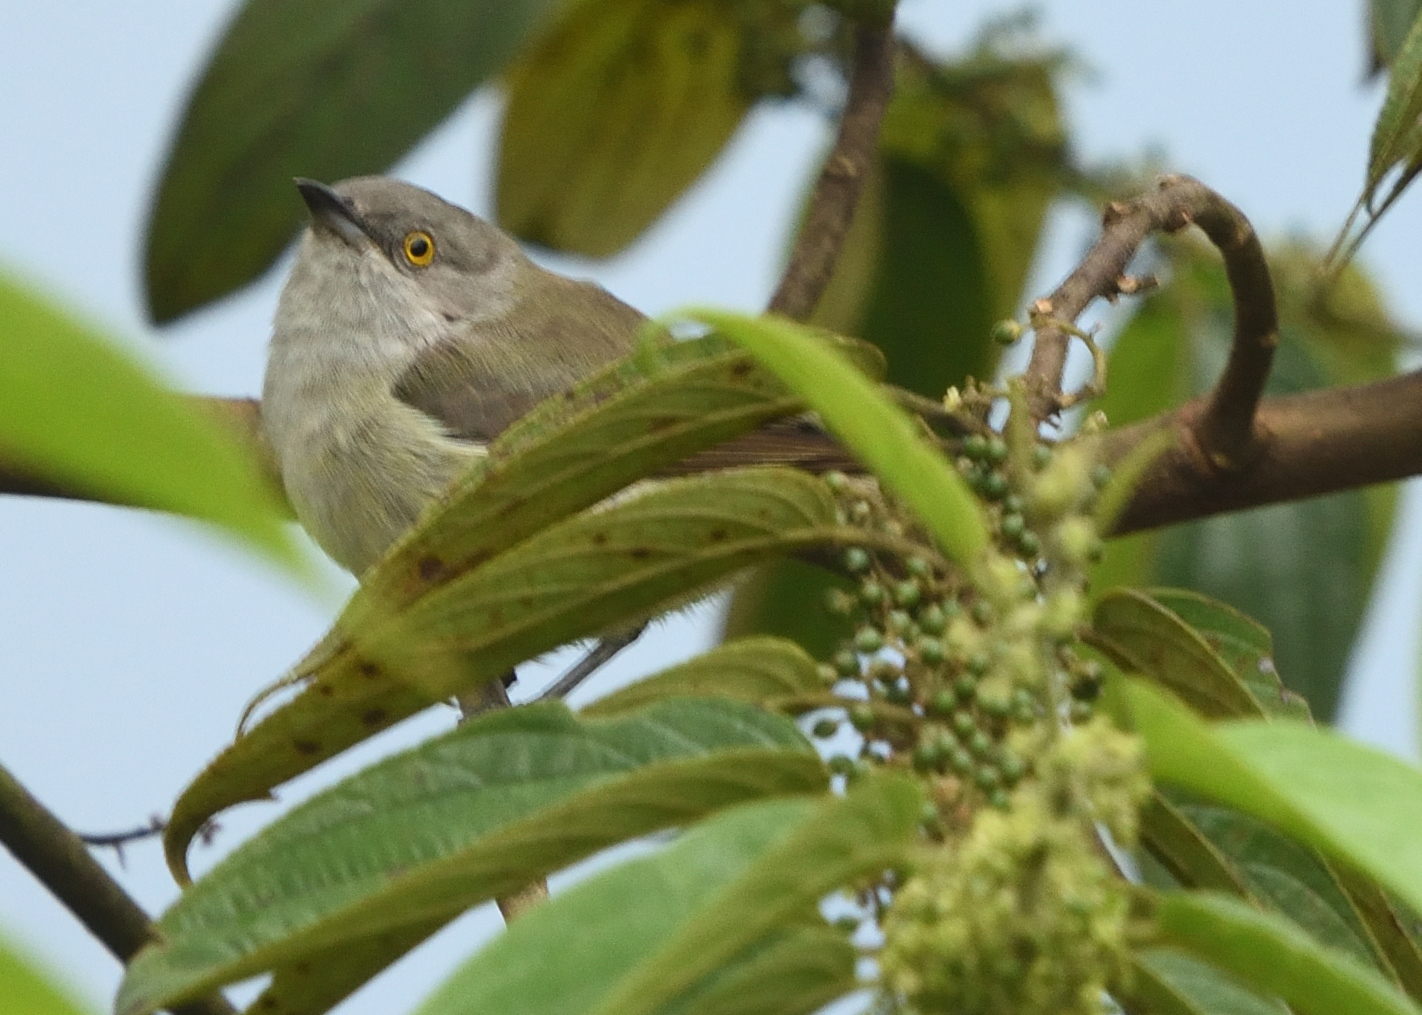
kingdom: Animalia
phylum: Chordata
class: Aves
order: Passeriformes
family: Thraupidae
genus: Dacnis
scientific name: Dacnis lineata
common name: Black-faced dacnis
